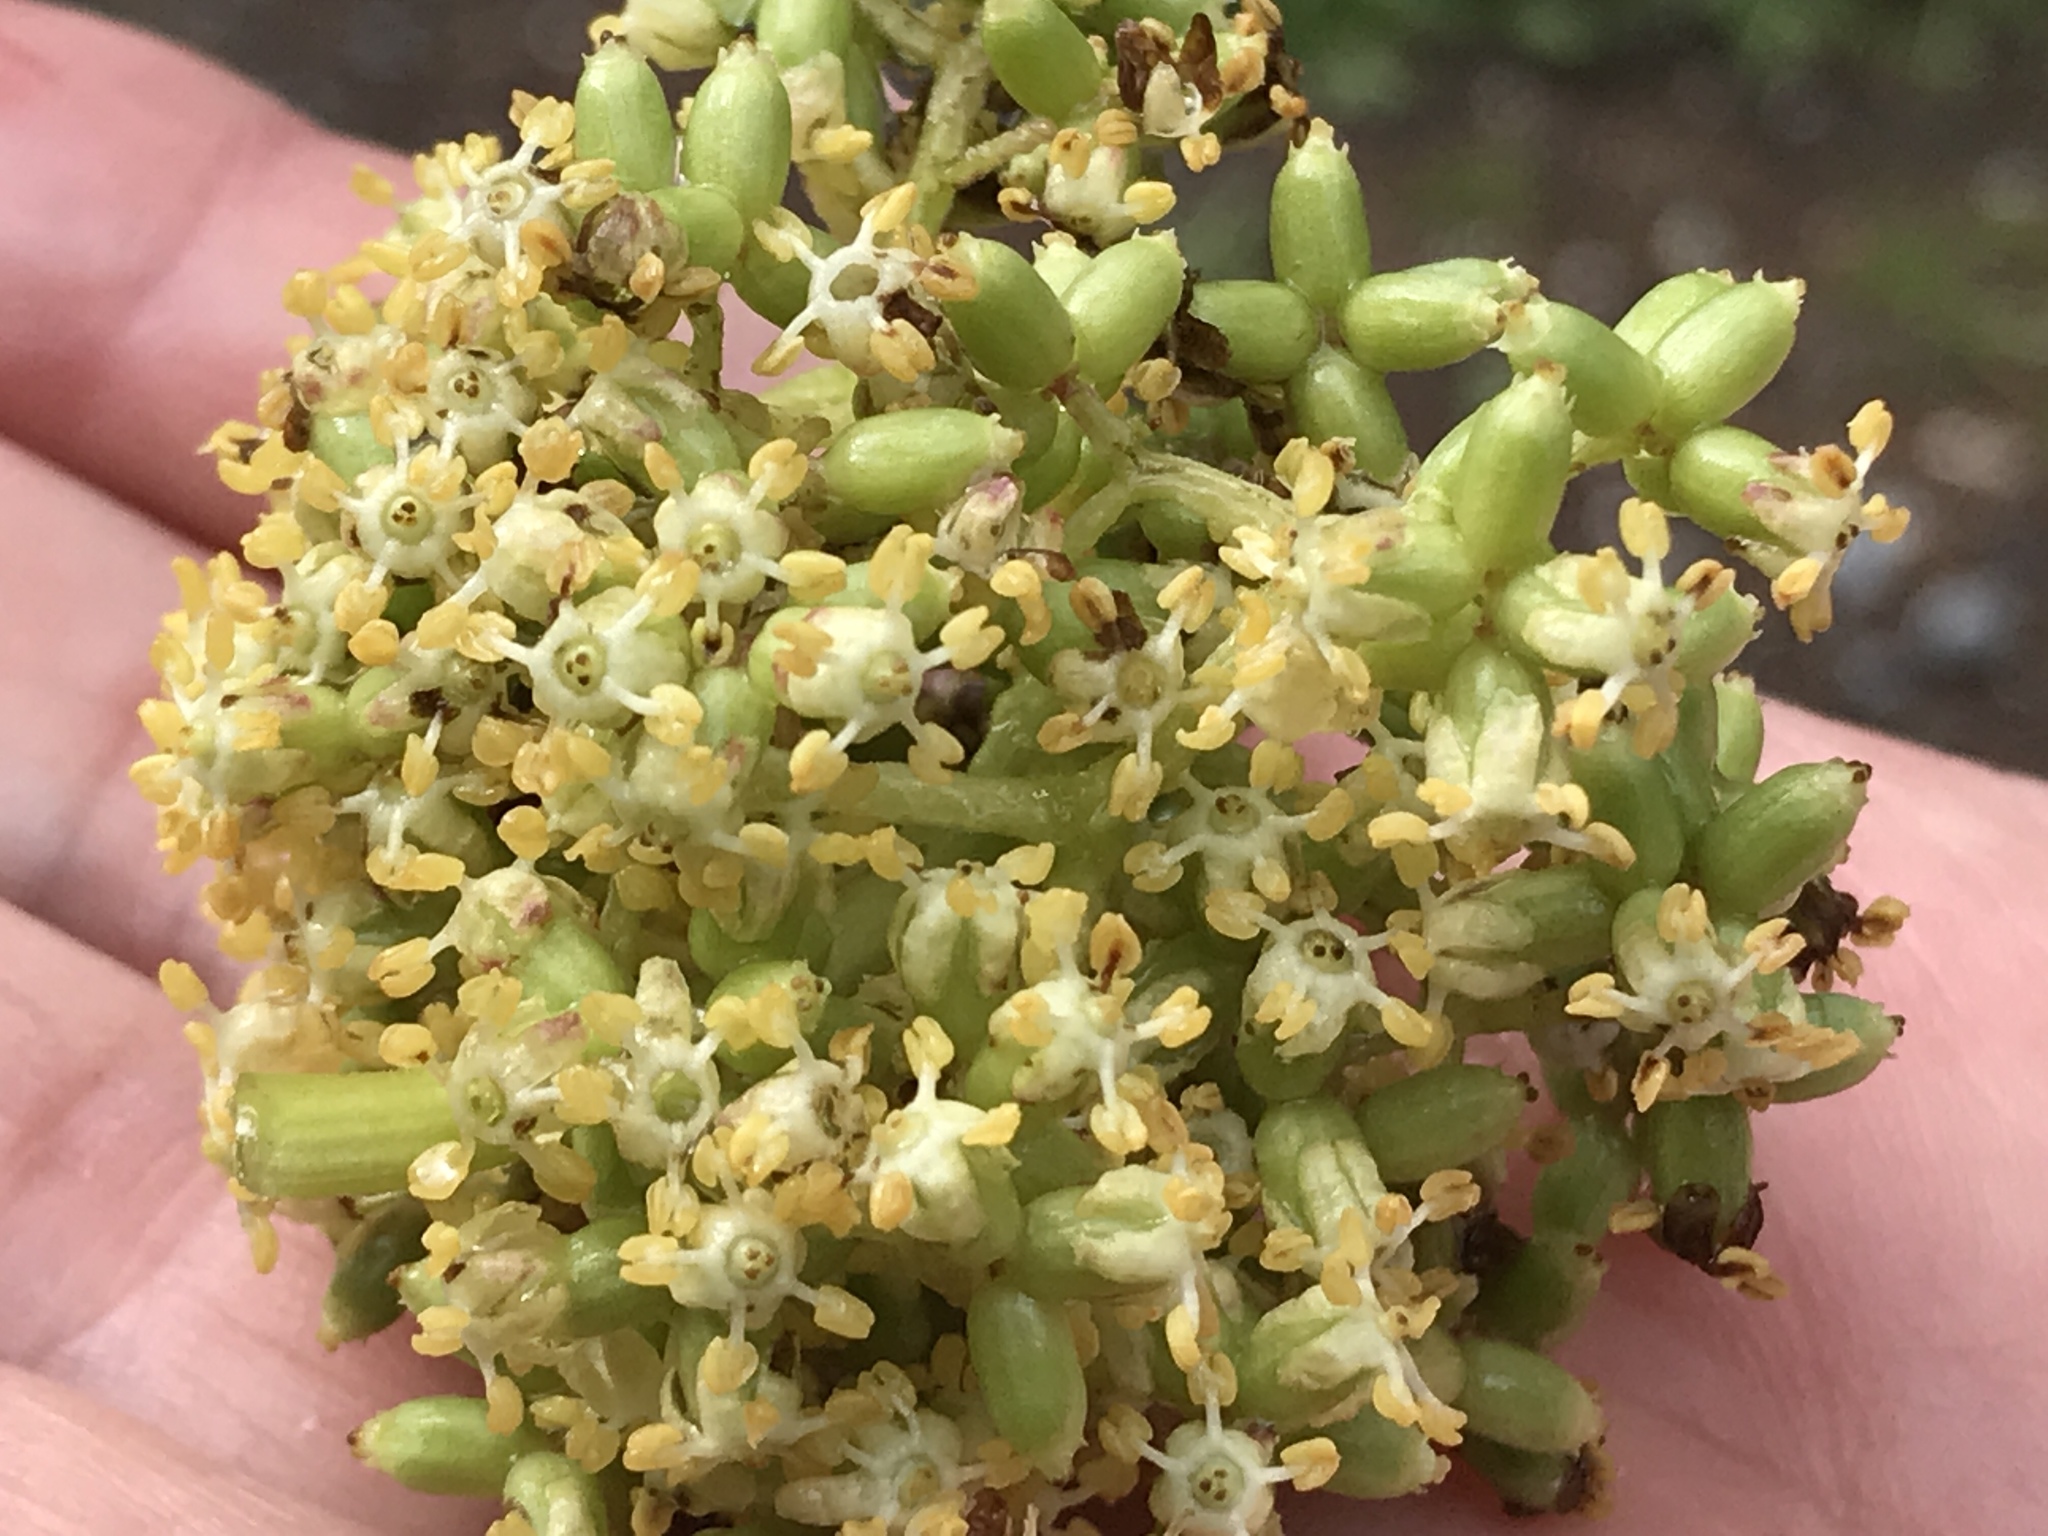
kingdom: Plantae
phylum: Tracheophyta
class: Magnoliopsida
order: Dipsacales
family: Viburnaceae
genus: Sambucus
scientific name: Sambucus racemosa
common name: Red-berried elder
